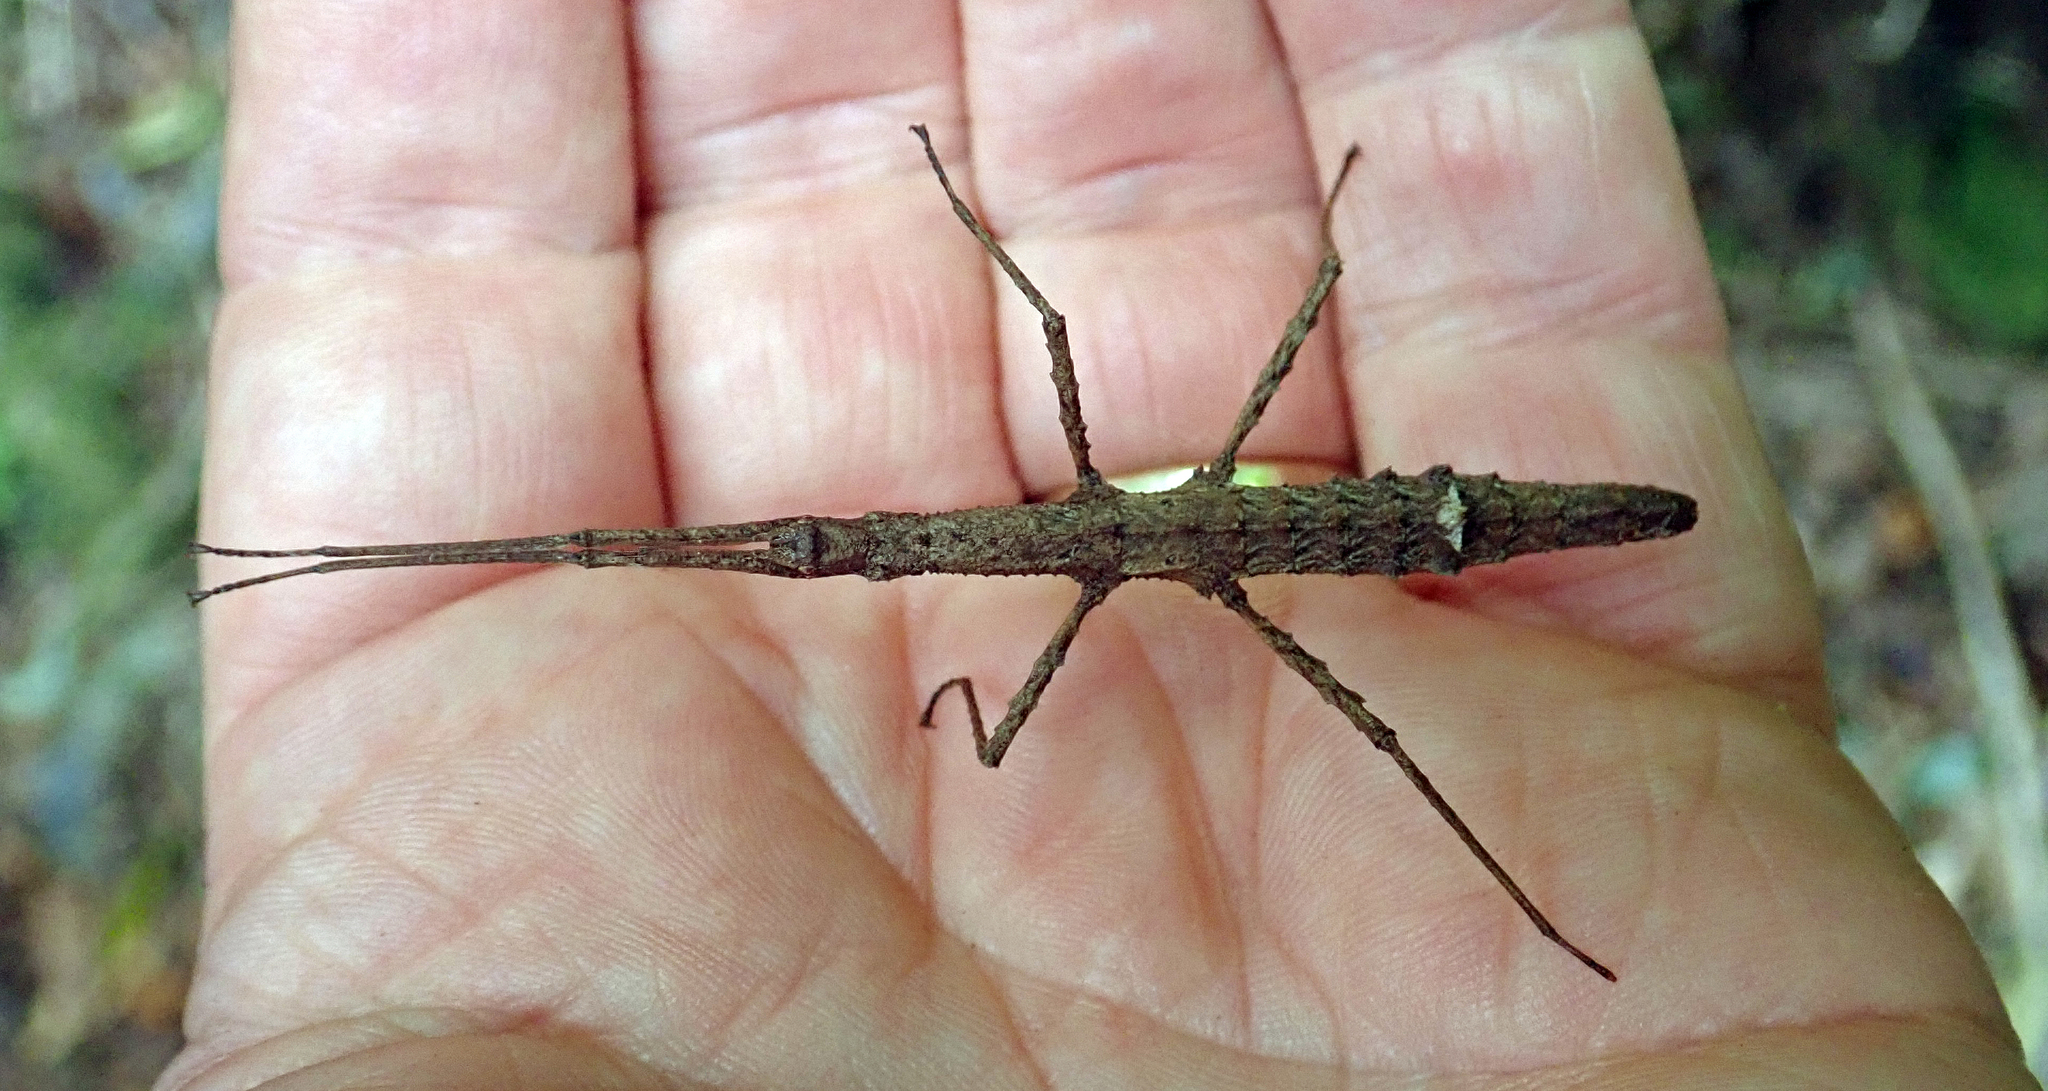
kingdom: Animalia
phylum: Arthropoda
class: Insecta
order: Phasmida
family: Phasmatidae
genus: Spinotectarchus
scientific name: Spinotectarchus acornutus
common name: The spiny ridge-backed stick insect
